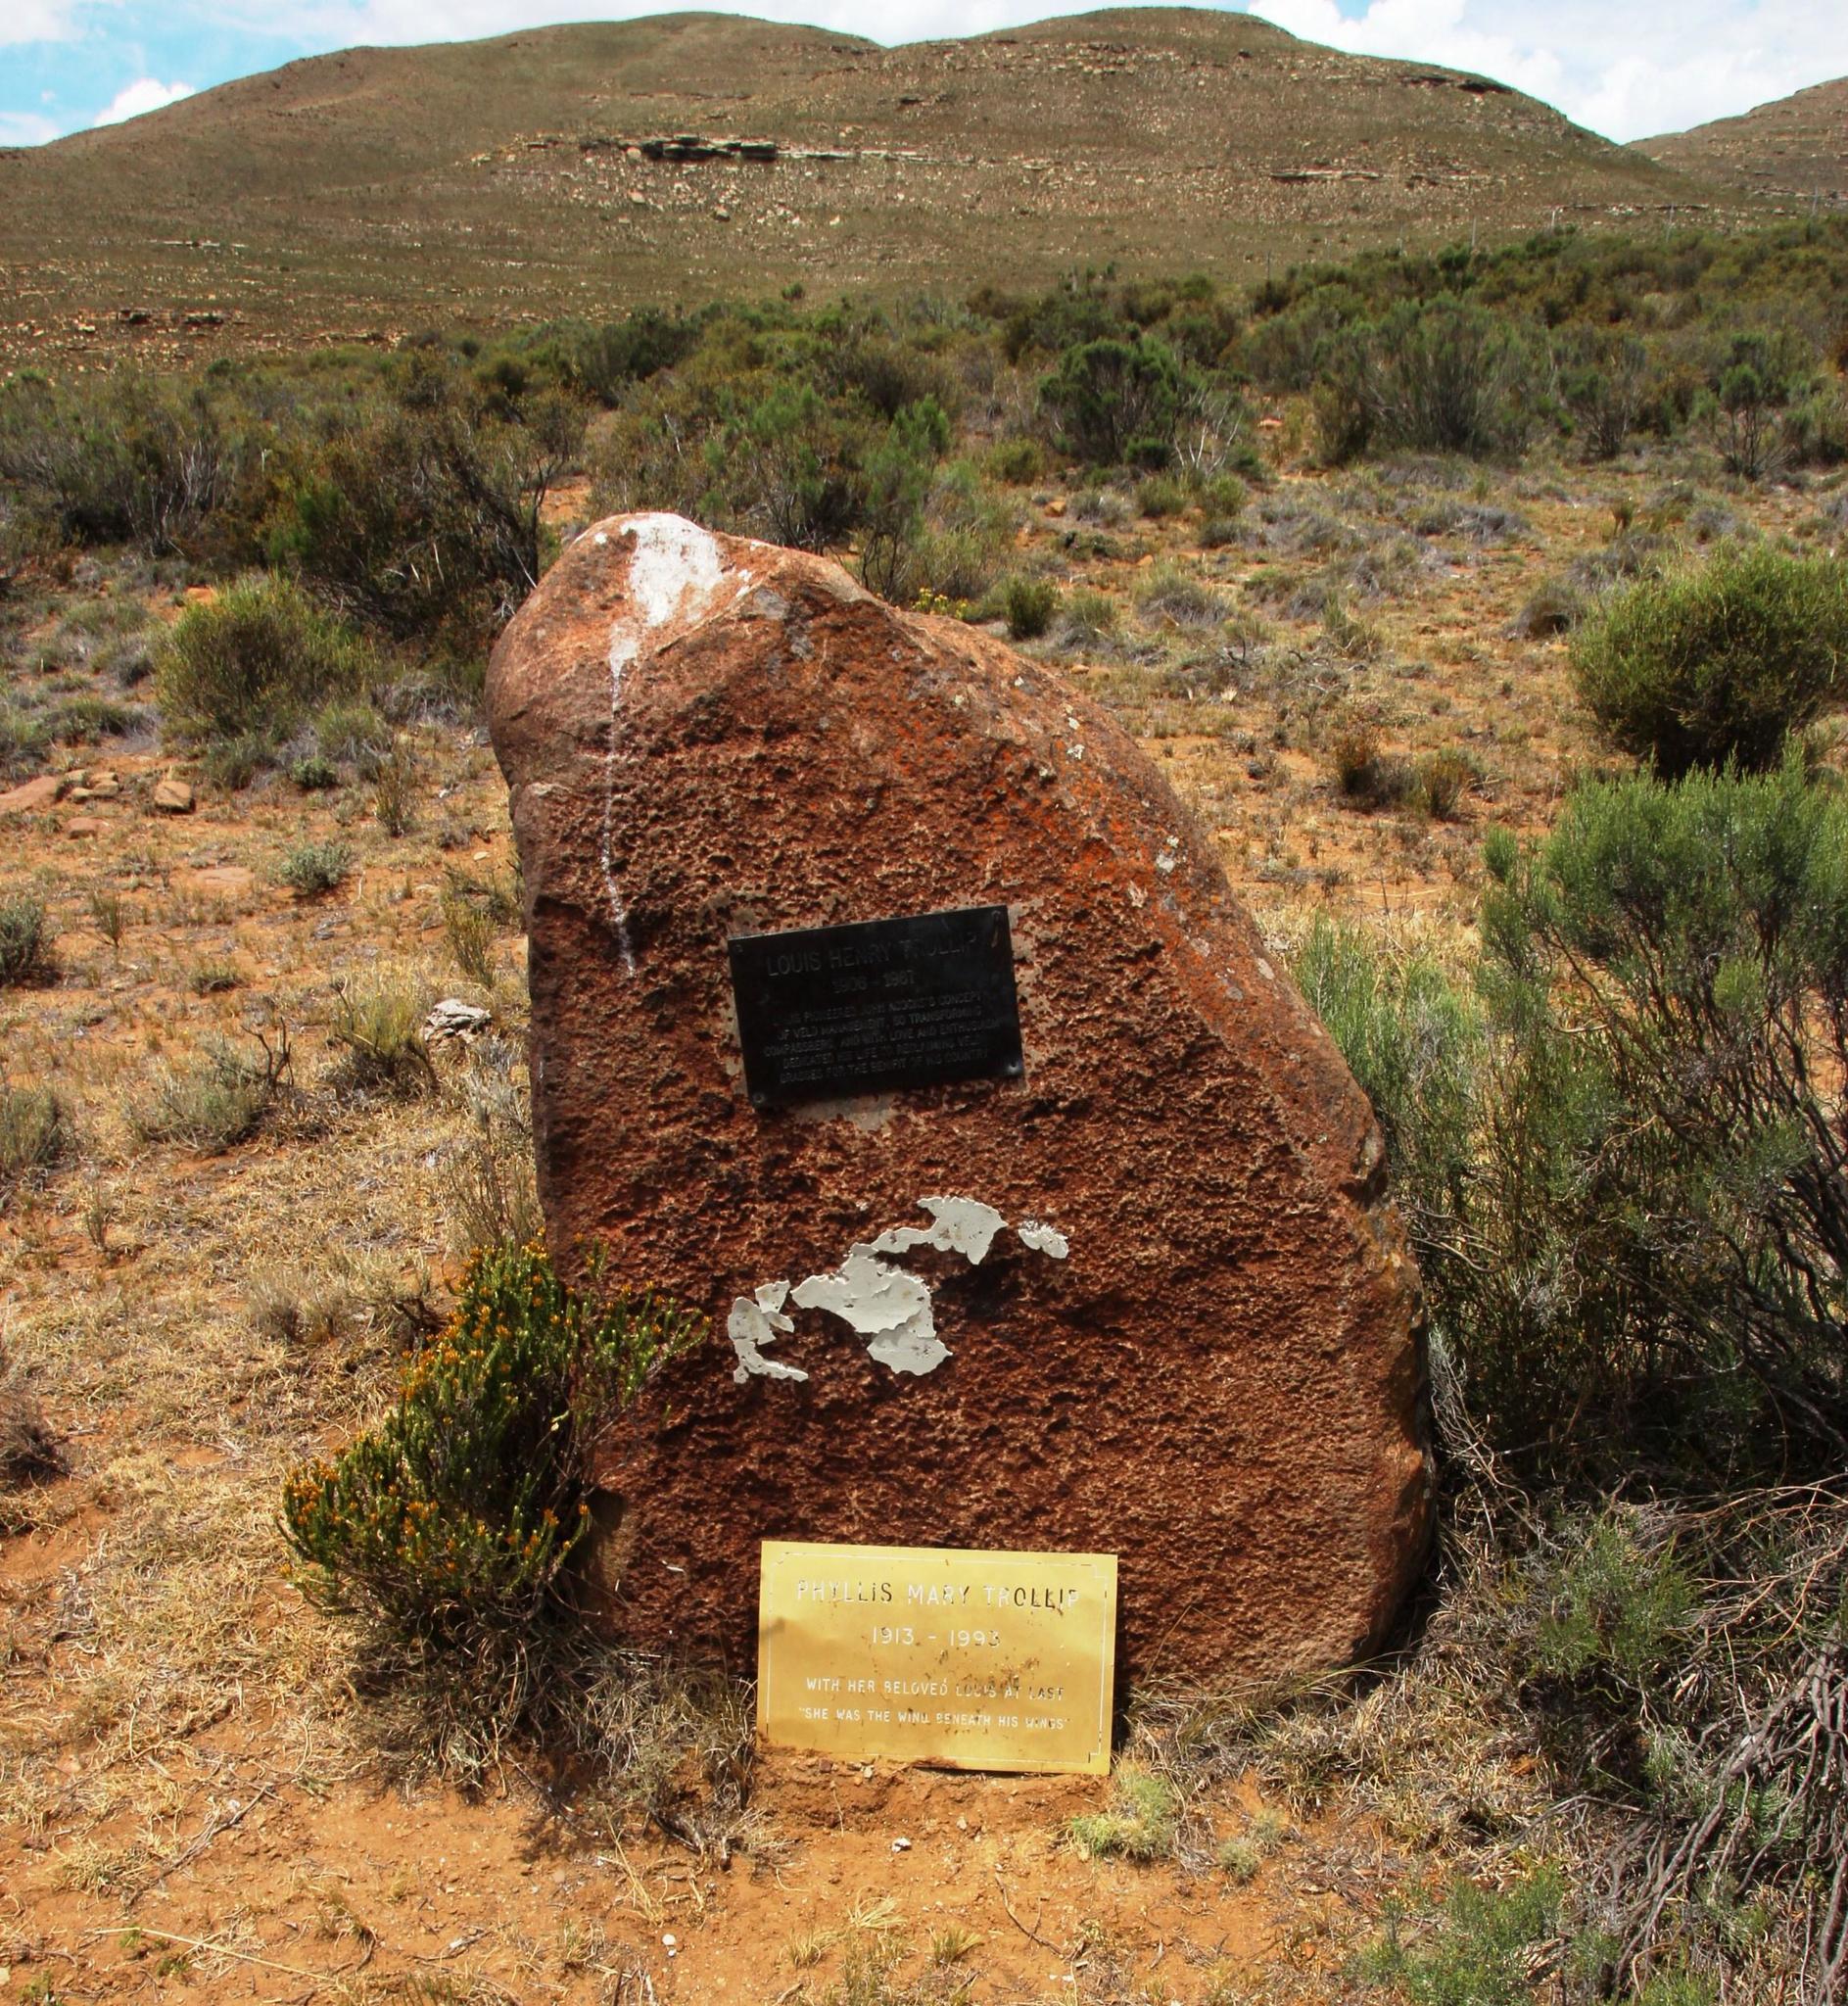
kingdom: Plantae
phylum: Tracheophyta
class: Magnoliopsida
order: Asterales
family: Asteraceae
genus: Dicerothamnus
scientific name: Dicerothamnus rhinocerotis
